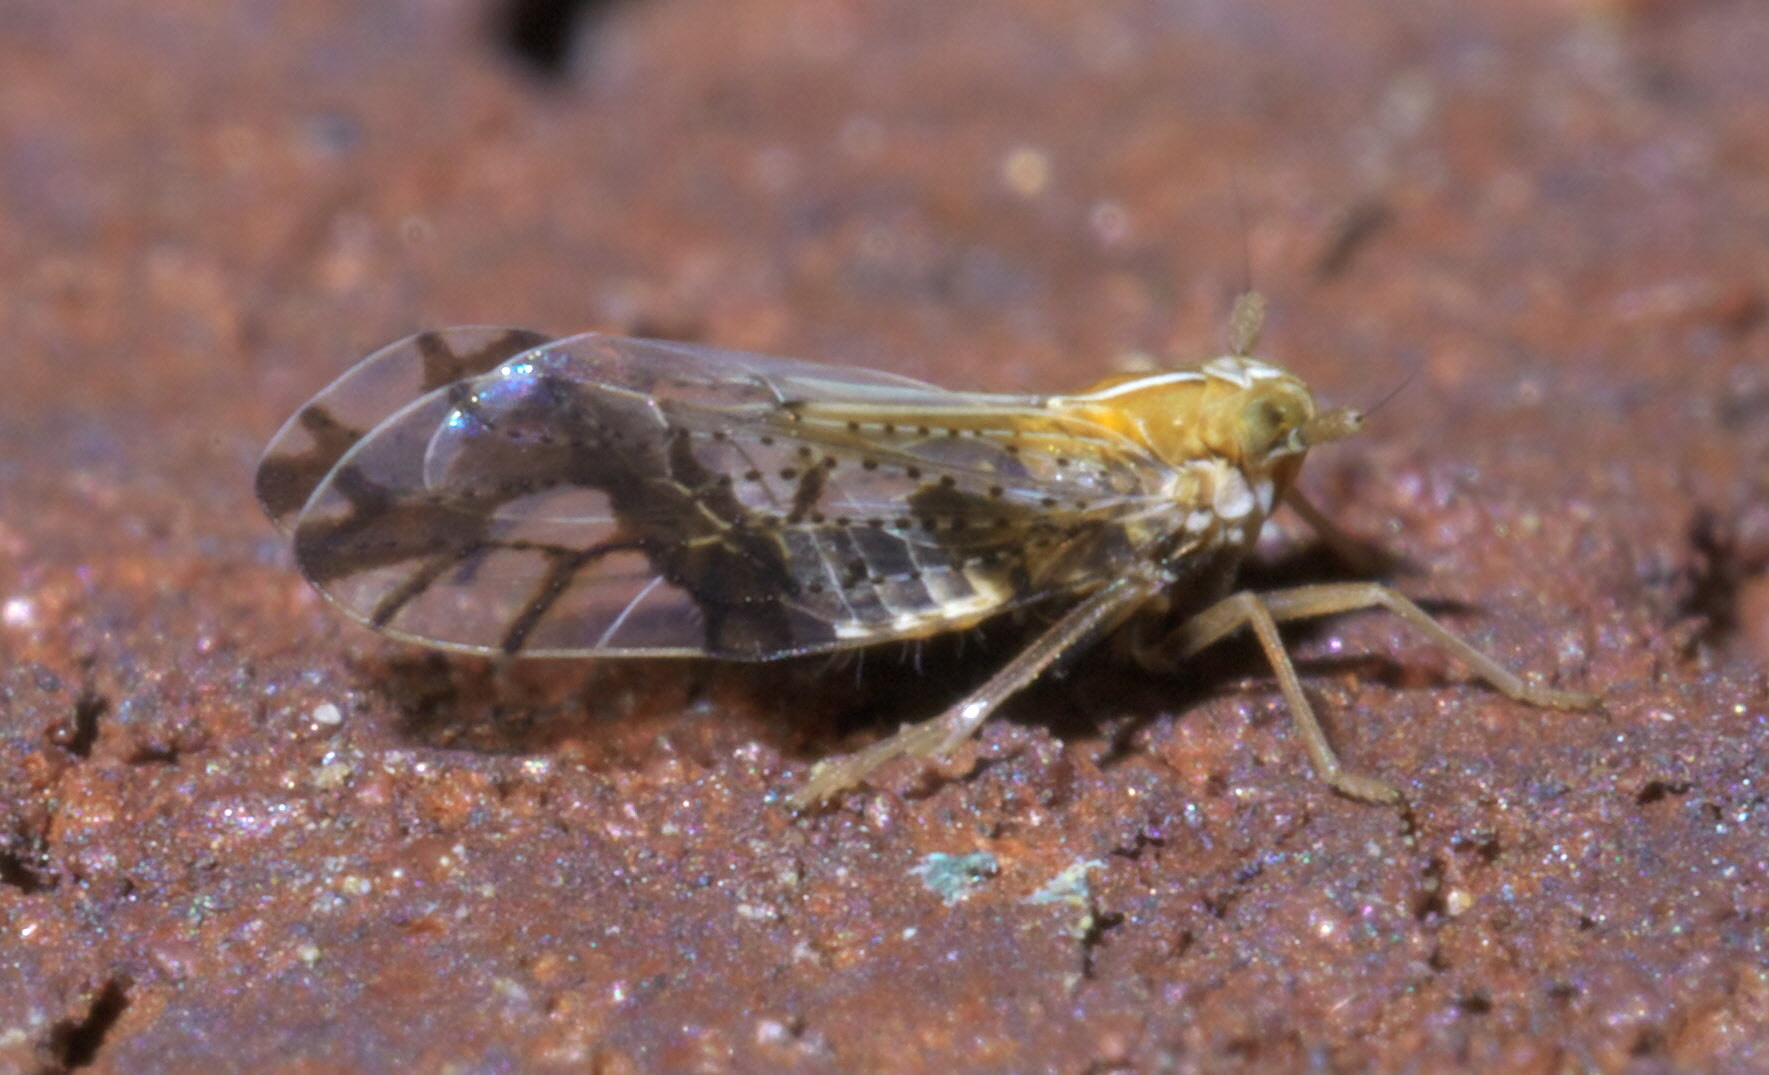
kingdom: Animalia
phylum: Arthropoda
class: Insecta
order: Hemiptera
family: Delphacidae
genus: Liburniella
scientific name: Liburniella ornata
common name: Ornate planthopper
